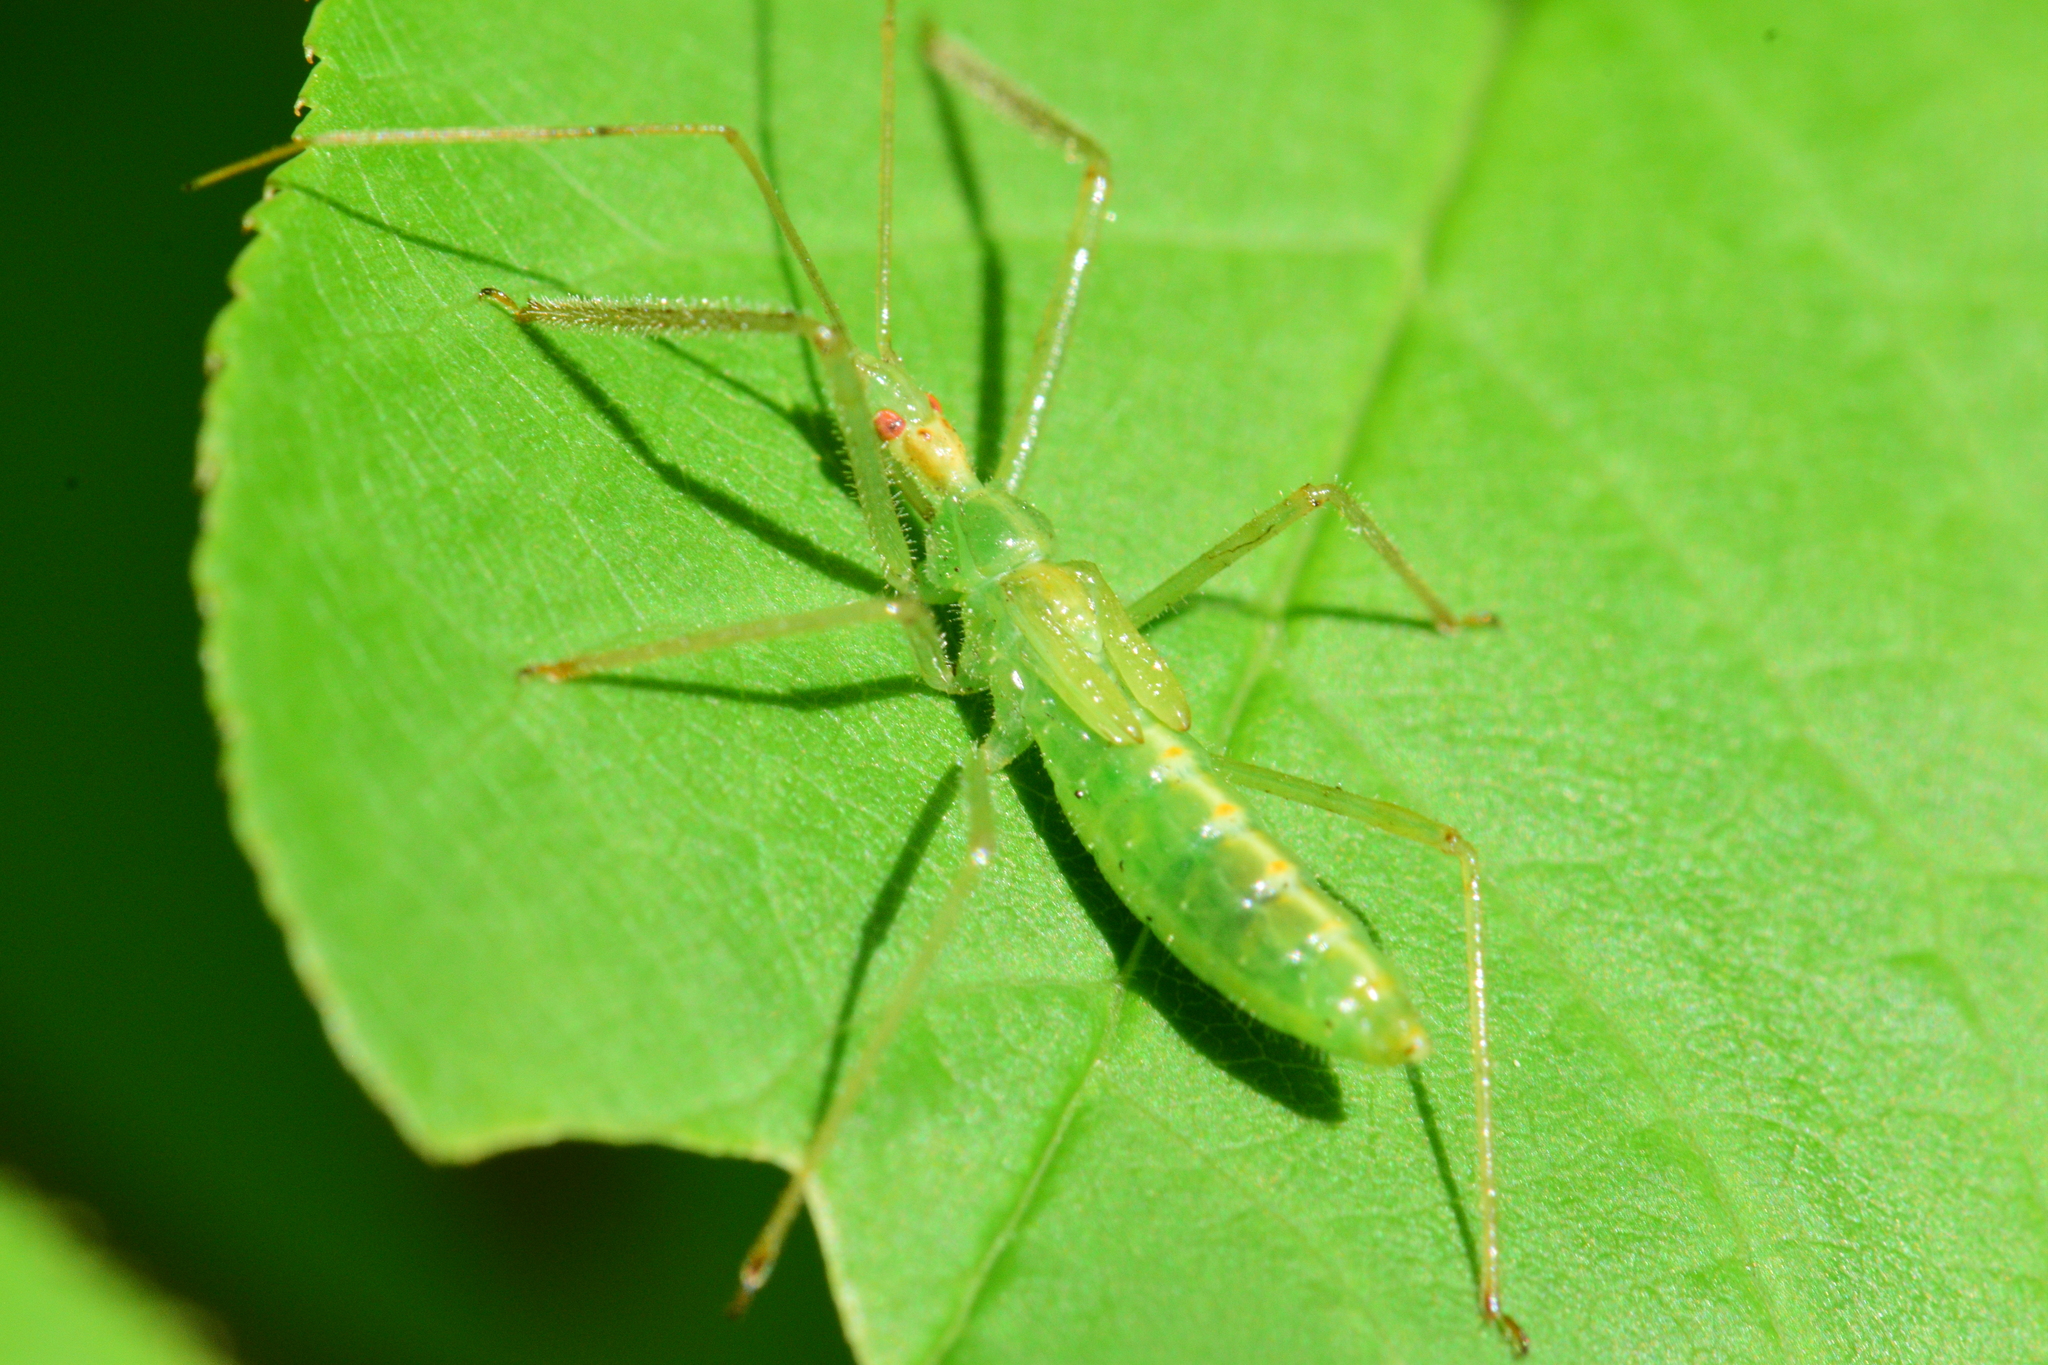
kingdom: Animalia
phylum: Arthropoda
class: Insecta
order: Hemiptera
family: Reduviidae
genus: Zelus
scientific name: Zelus luridus
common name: Pale green assassin bug
